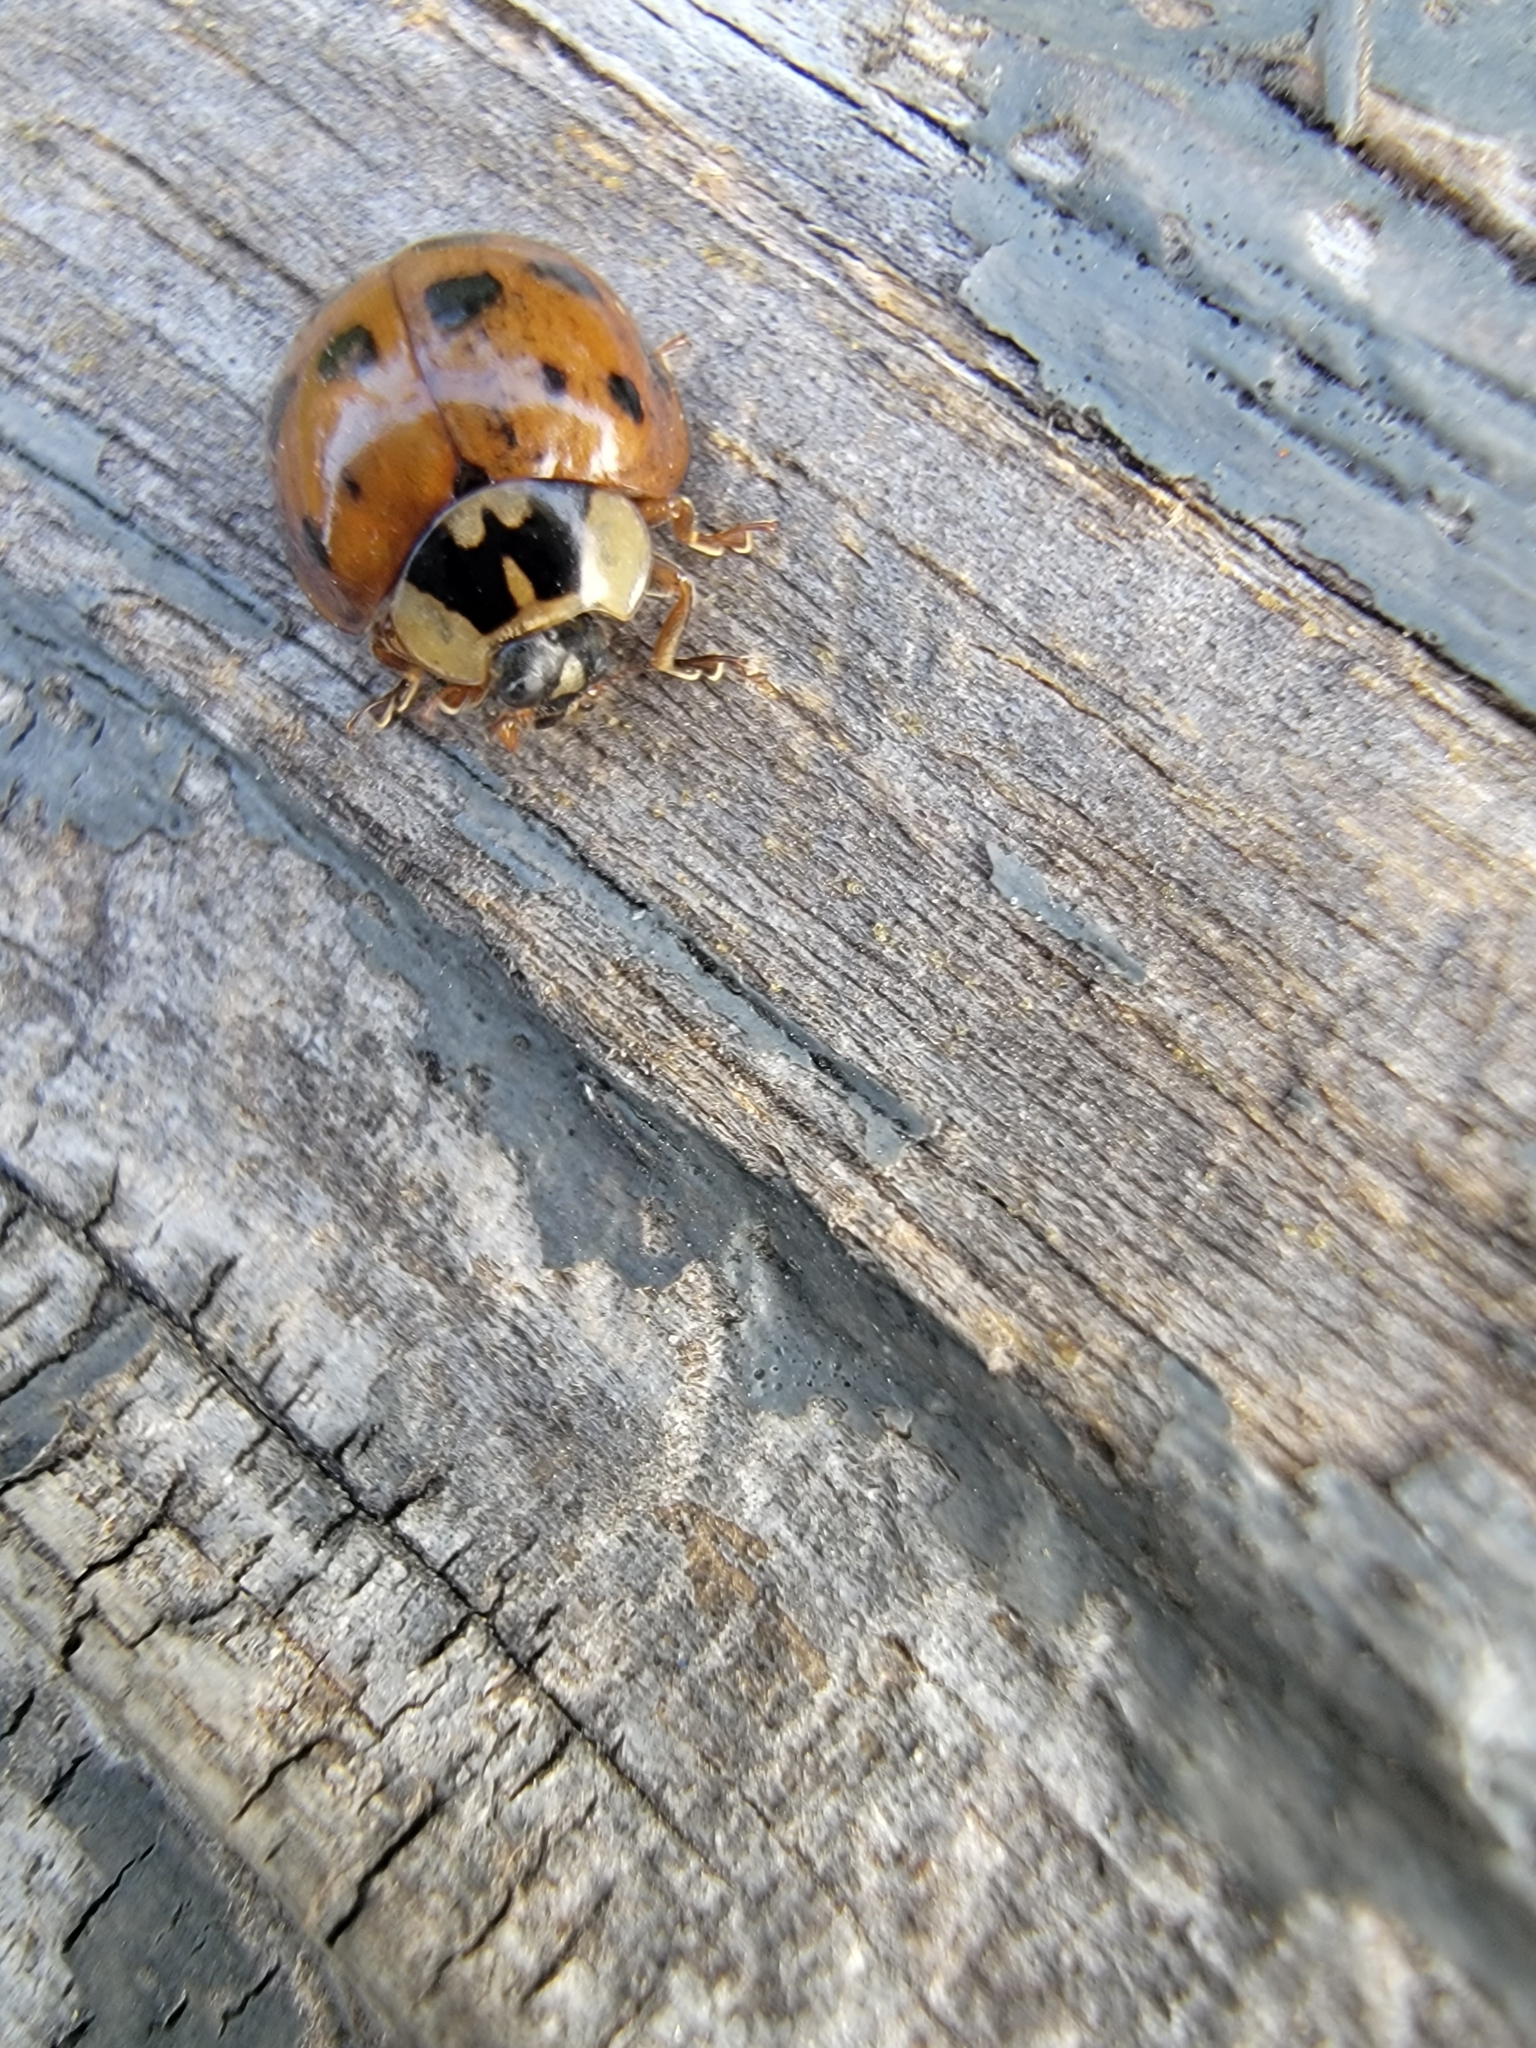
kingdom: Animalia
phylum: Arthropoda
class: Insecta
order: Coleoptera
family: Coccinellidae
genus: Harmonia
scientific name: Harmonia axyridis
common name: Harlequin ladybird
